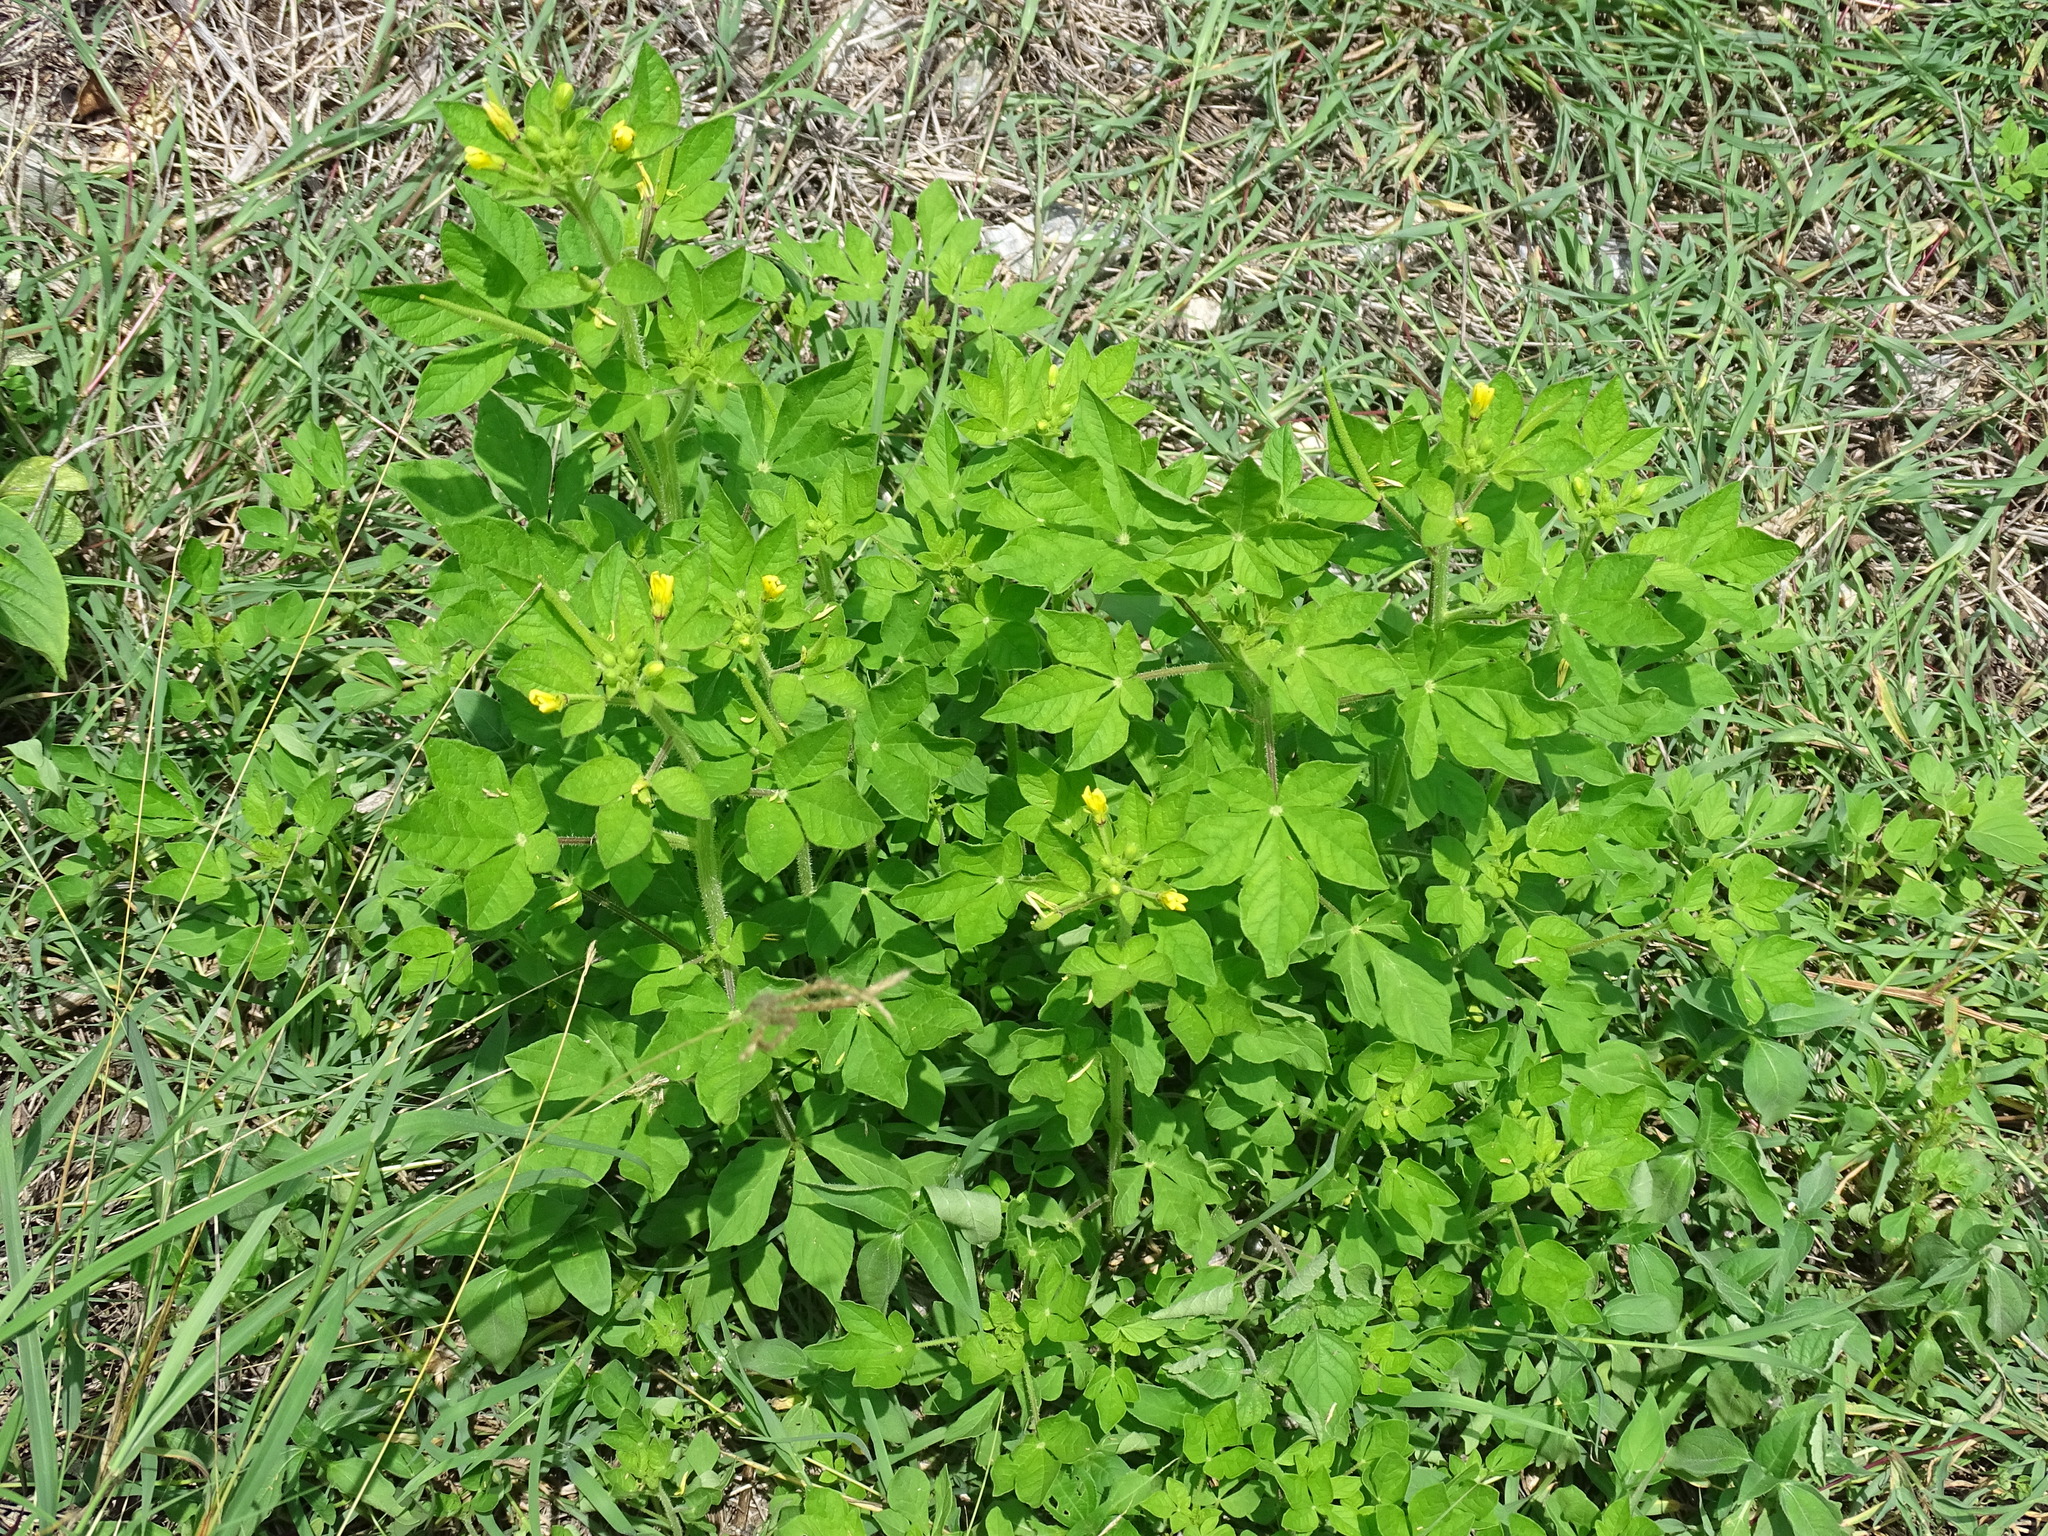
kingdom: Plantae
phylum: Tracheophyta
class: Magnoliopsida
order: Brassicales
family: Cleomaceae
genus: Arivela
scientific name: Arivela viscosa
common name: Asian spiderflower
